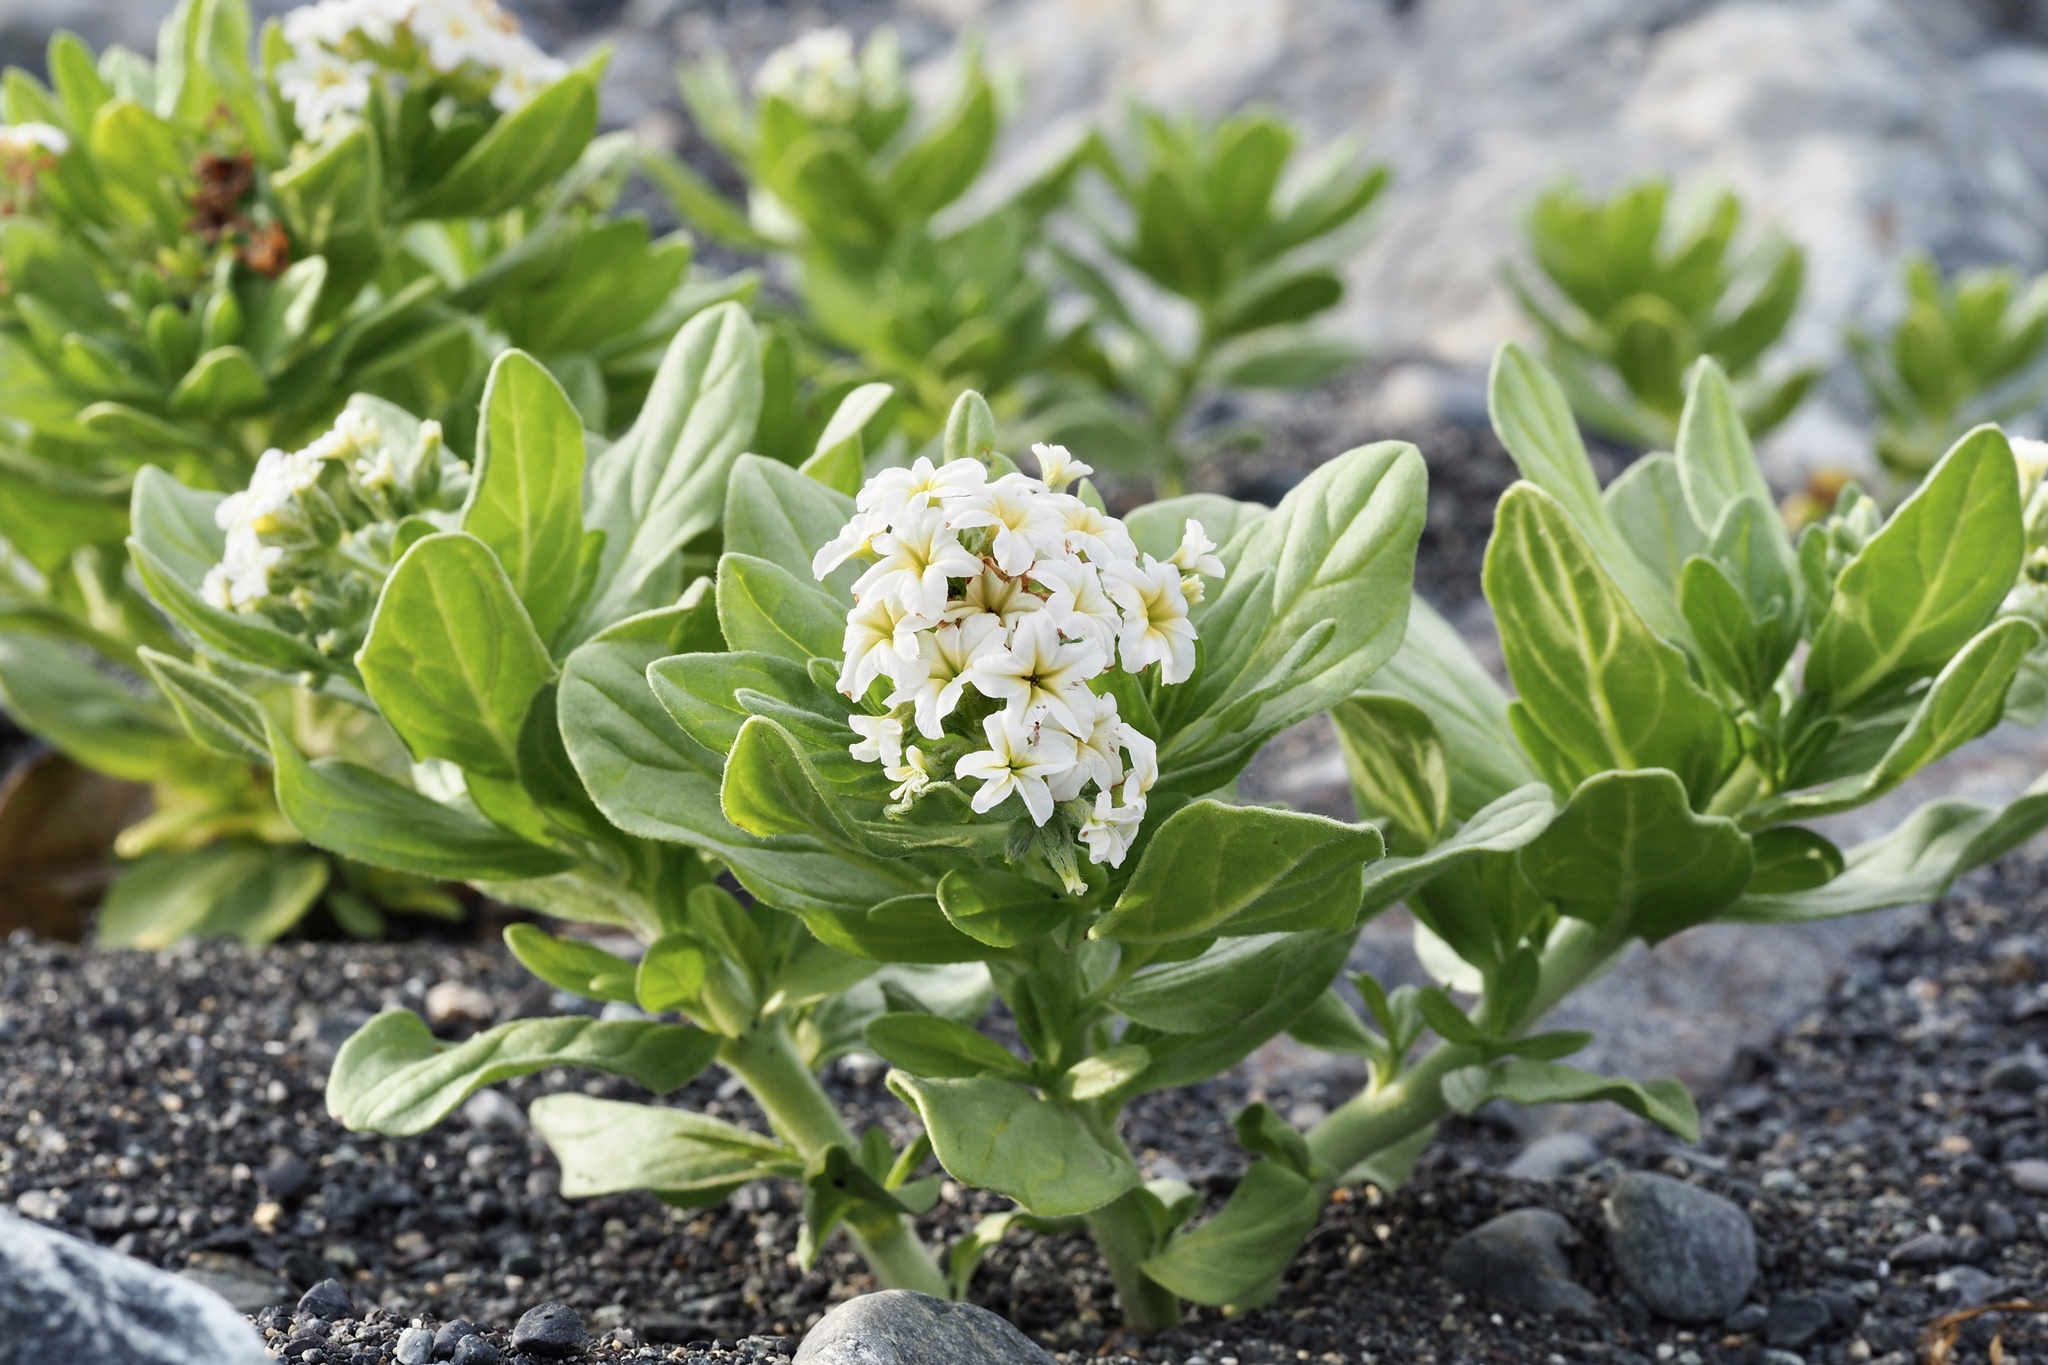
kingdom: Plantae
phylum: Tracheophyta
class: Magnoliopsida
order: Boraginales
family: Heliotropiaceae
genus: Tournefortia
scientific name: Tournefortia sibirica
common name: Siberian sea rosemary
